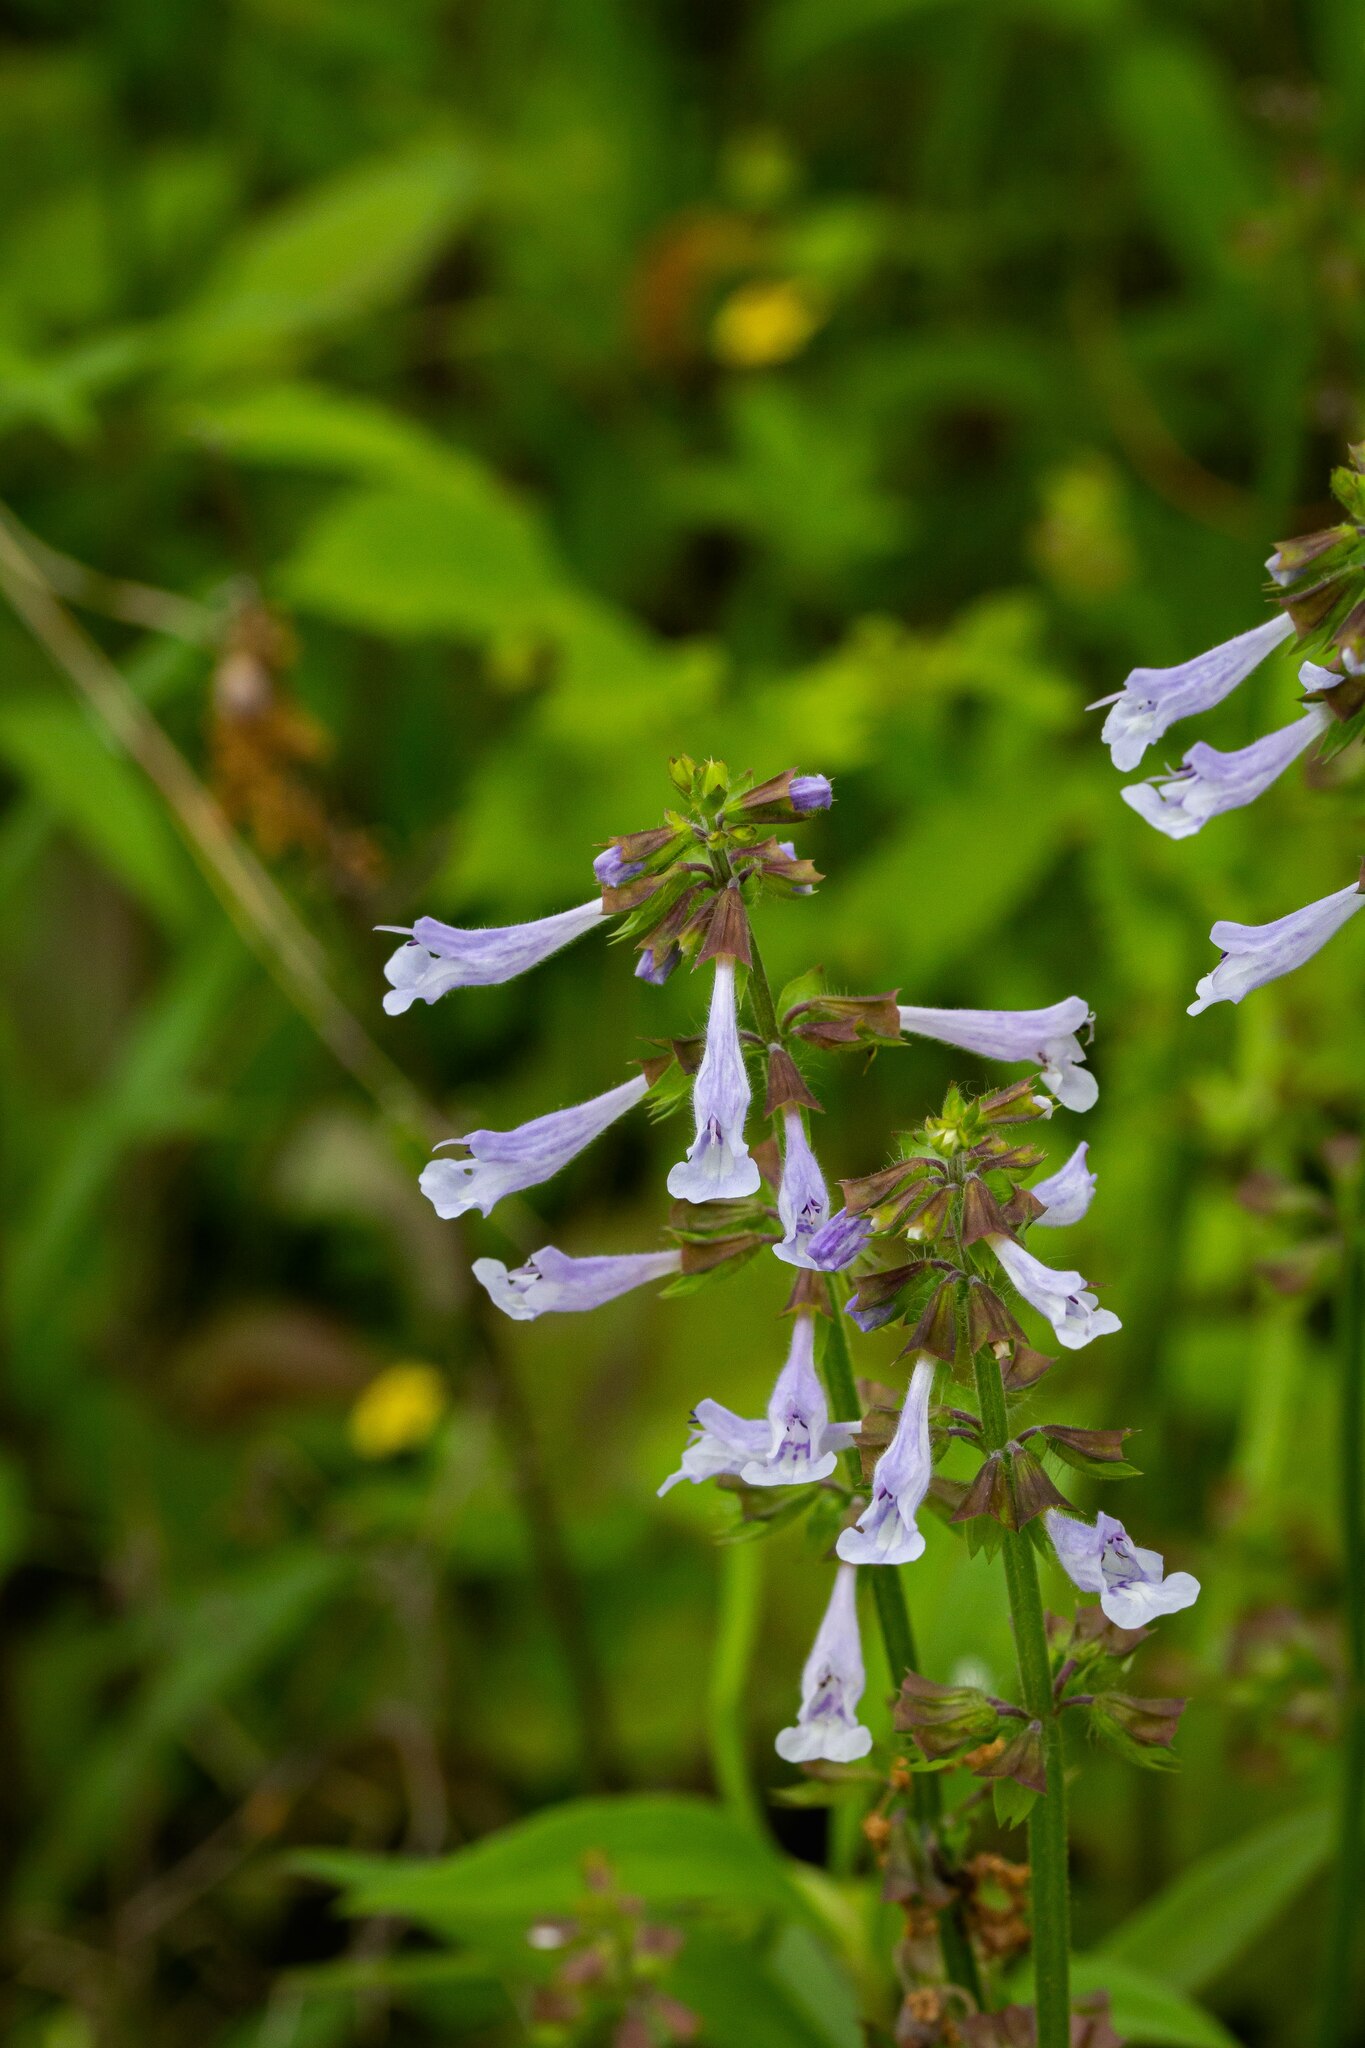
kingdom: Plantae
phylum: Tracheophyta
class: Magnoliopsida
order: Lamiales
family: Lamiaceae
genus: Salvia
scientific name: Salvia lyrata
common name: Cancerweed
